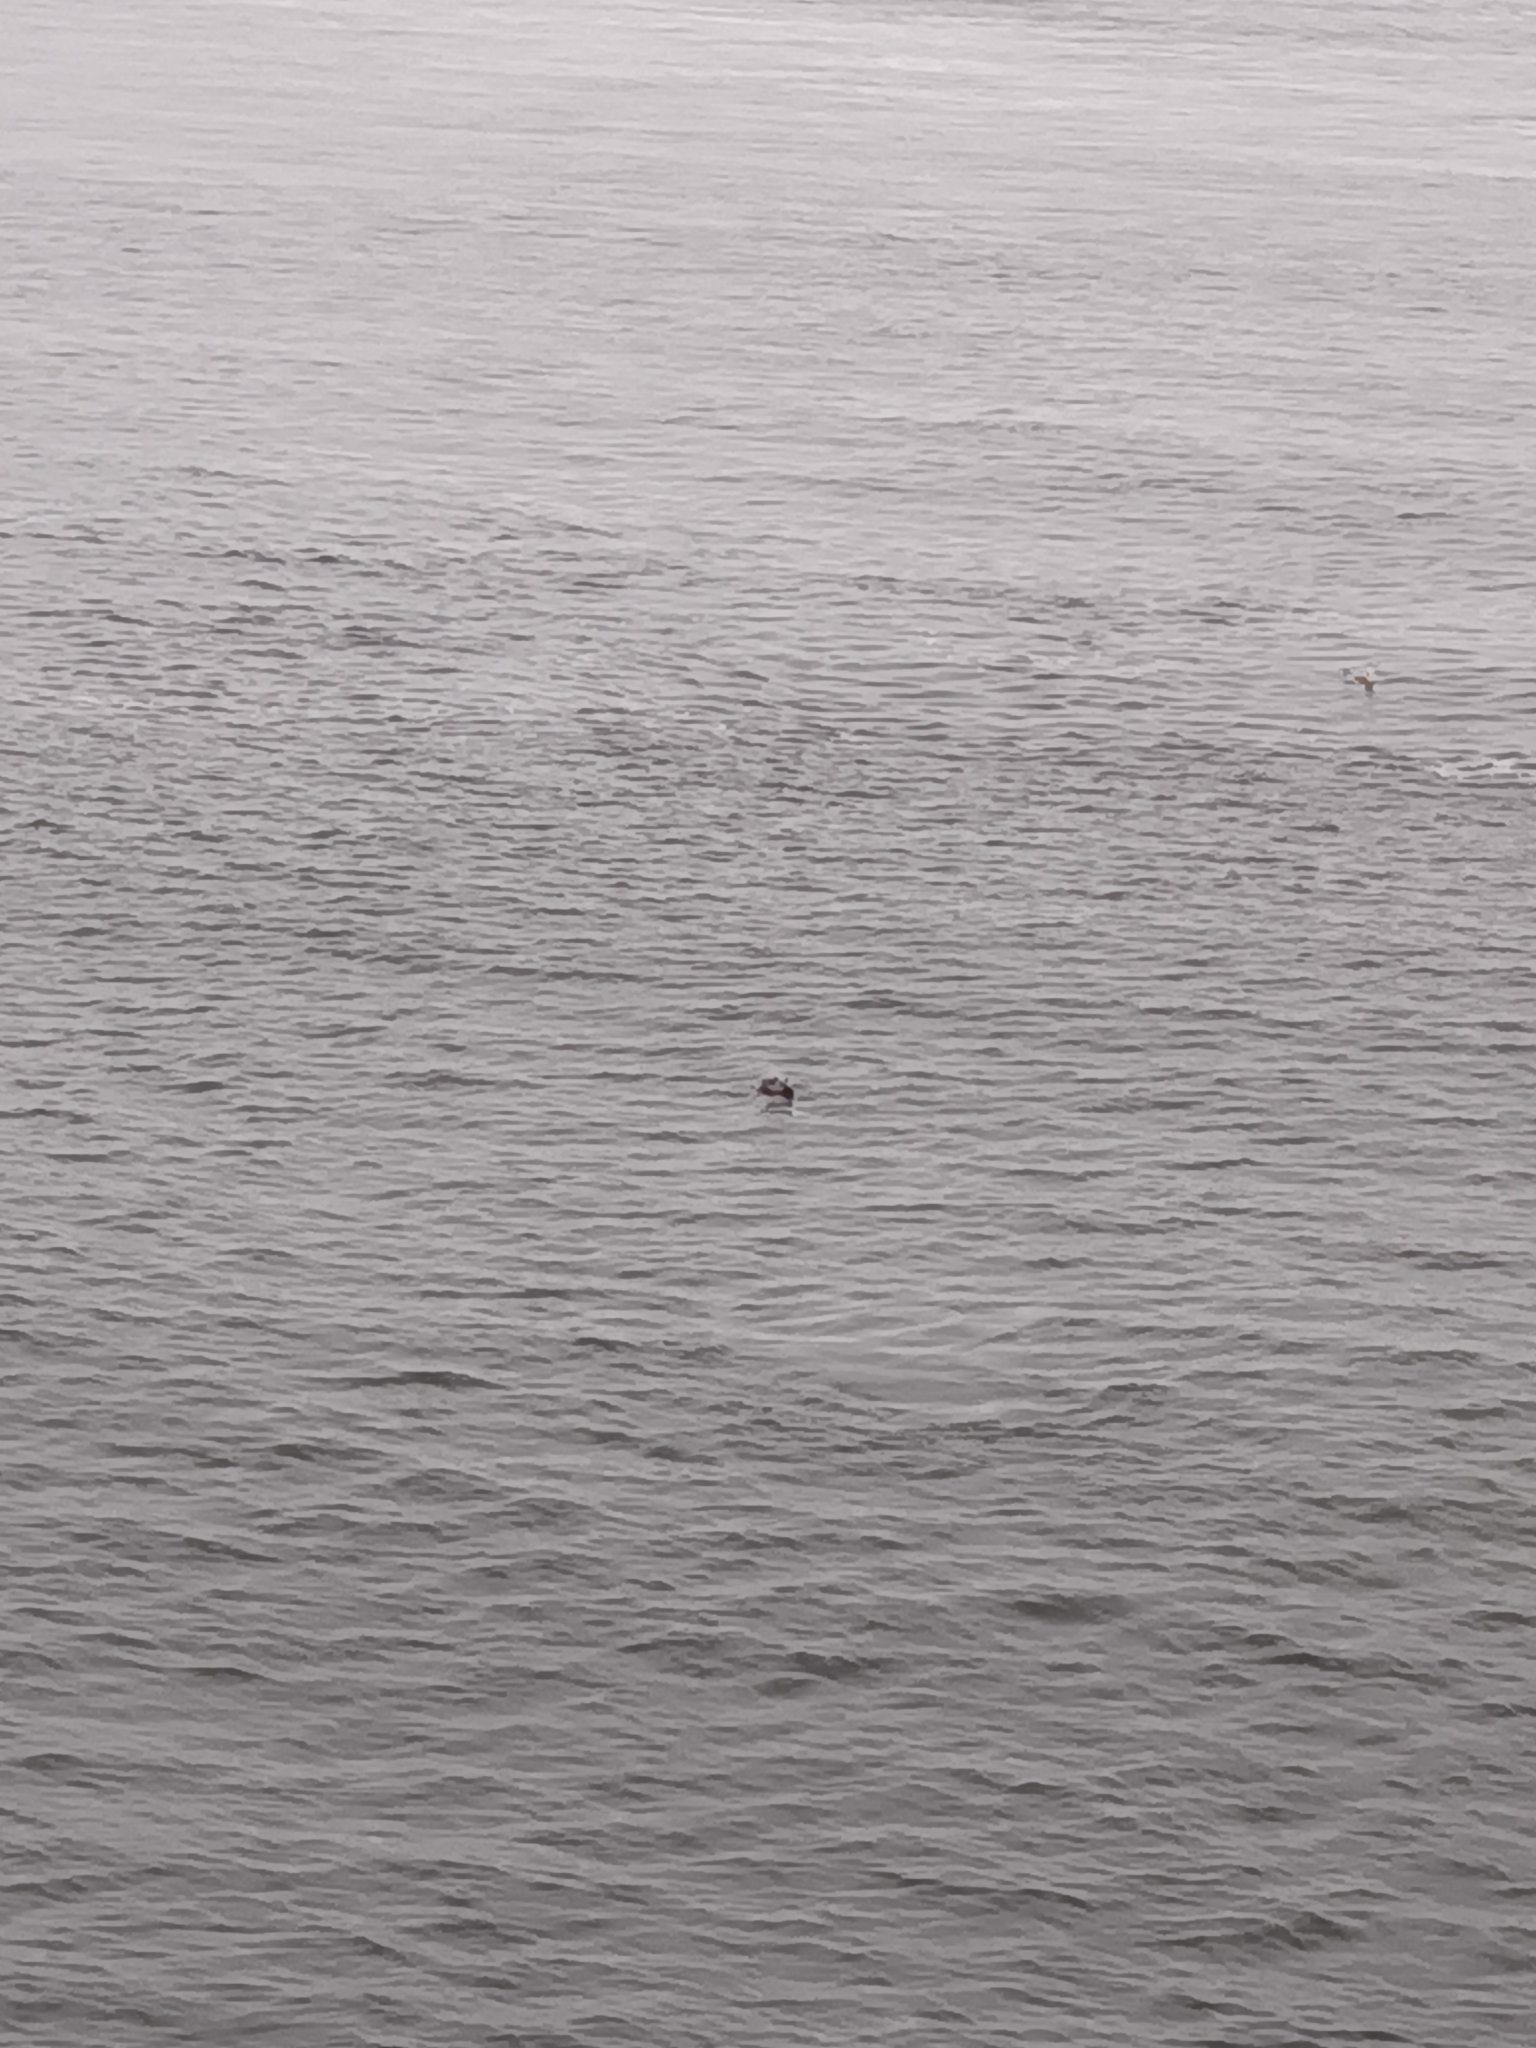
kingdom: Animalia
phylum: Chordata
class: Mammalia
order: Carnivora
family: Phocidae
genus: Halichoerus
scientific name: Halichoerus grypus
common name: Grey seal
